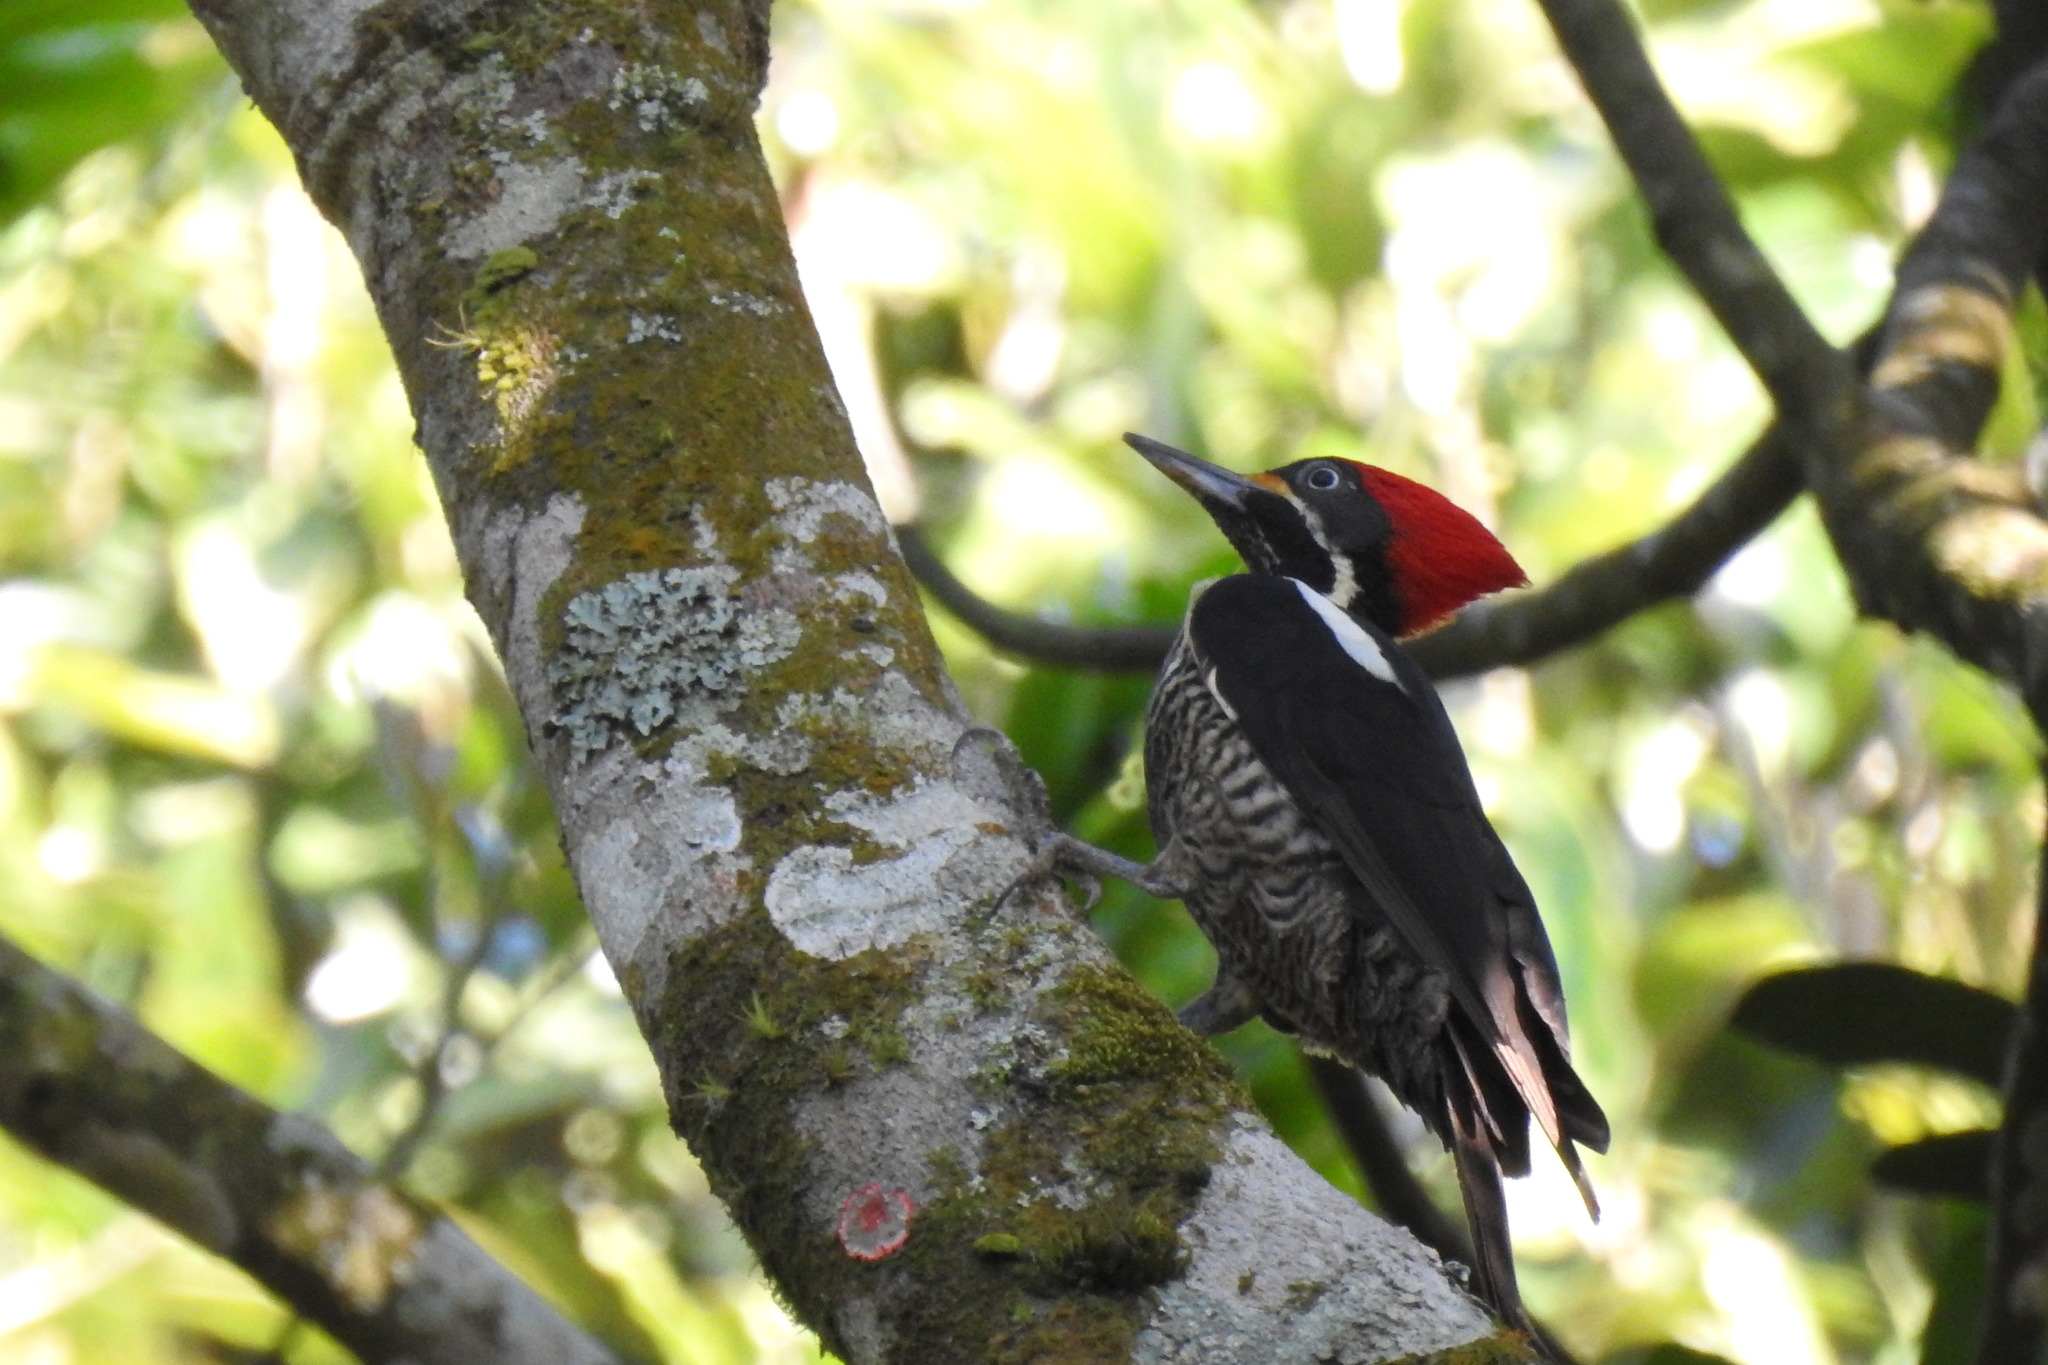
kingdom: Animalia
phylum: Chordata
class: Aves
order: Piciformes
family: Picidae
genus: Dryocopus
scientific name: Dryocopus lineatus
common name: Lineated woodpecker
